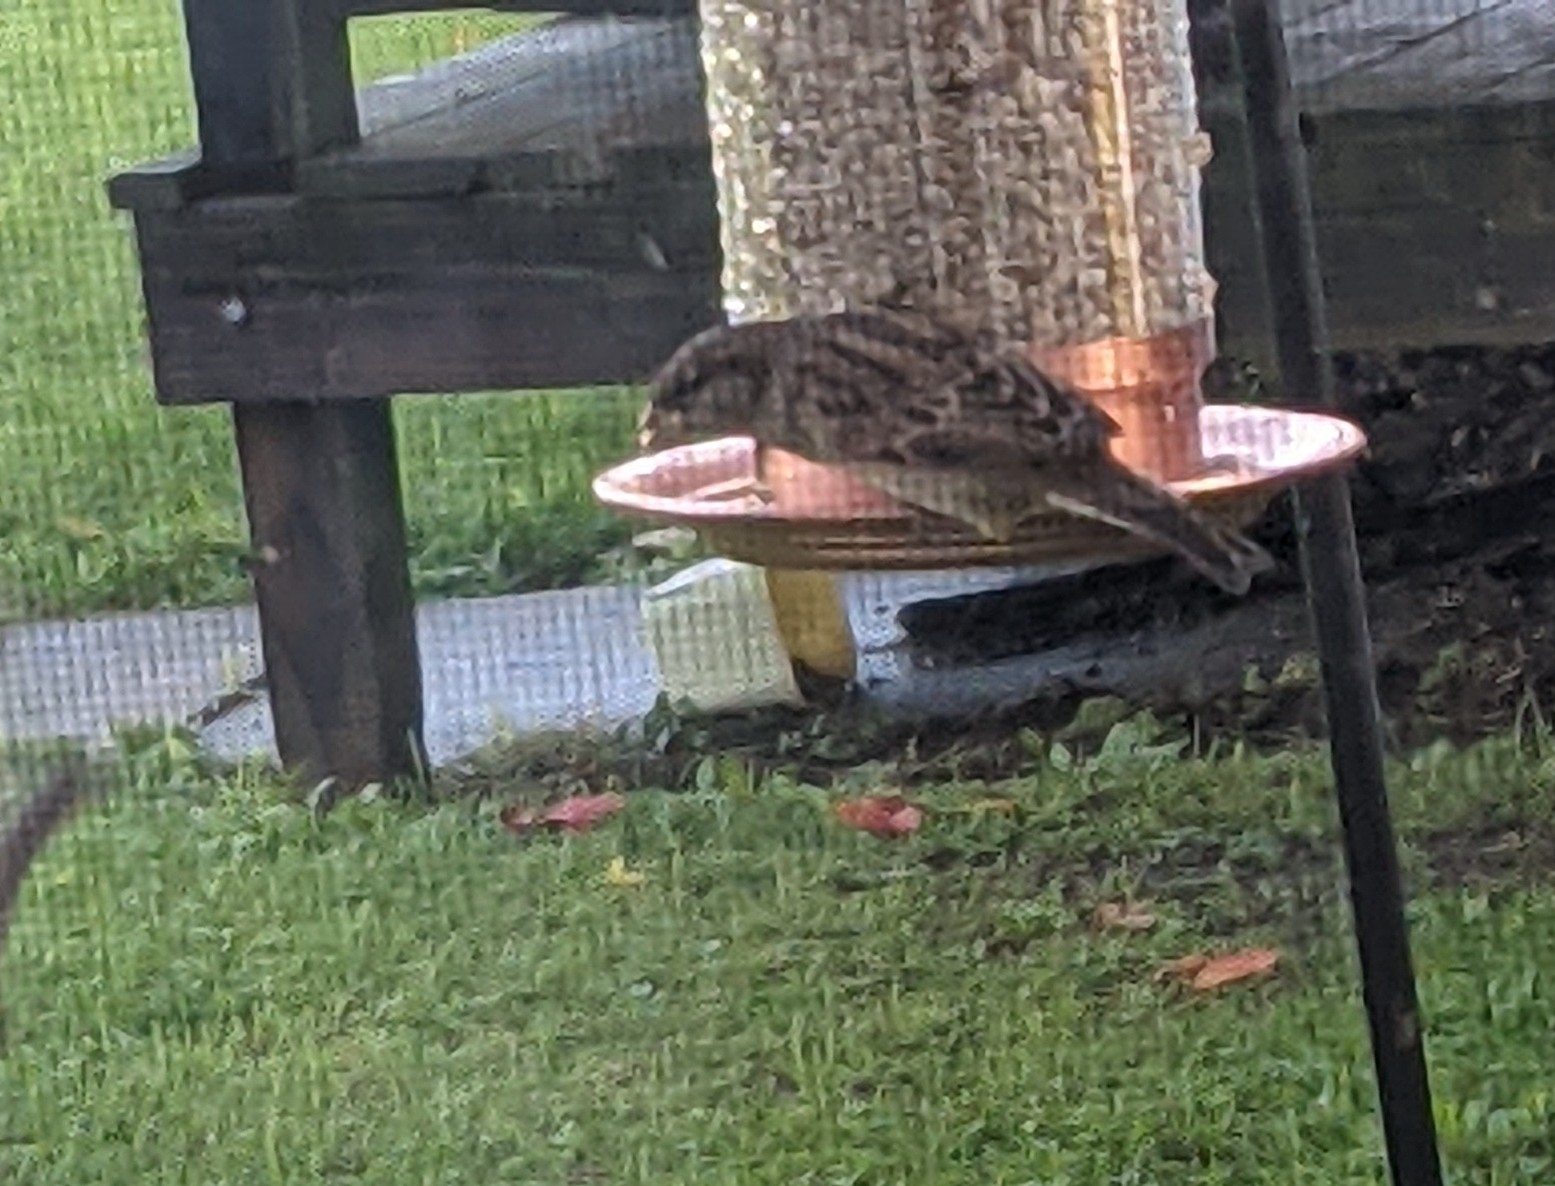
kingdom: Animalia
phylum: Chordata
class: Aves
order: Passeriformes
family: Passeridae
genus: Passer
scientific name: Passer domesticus
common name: House sparrow
